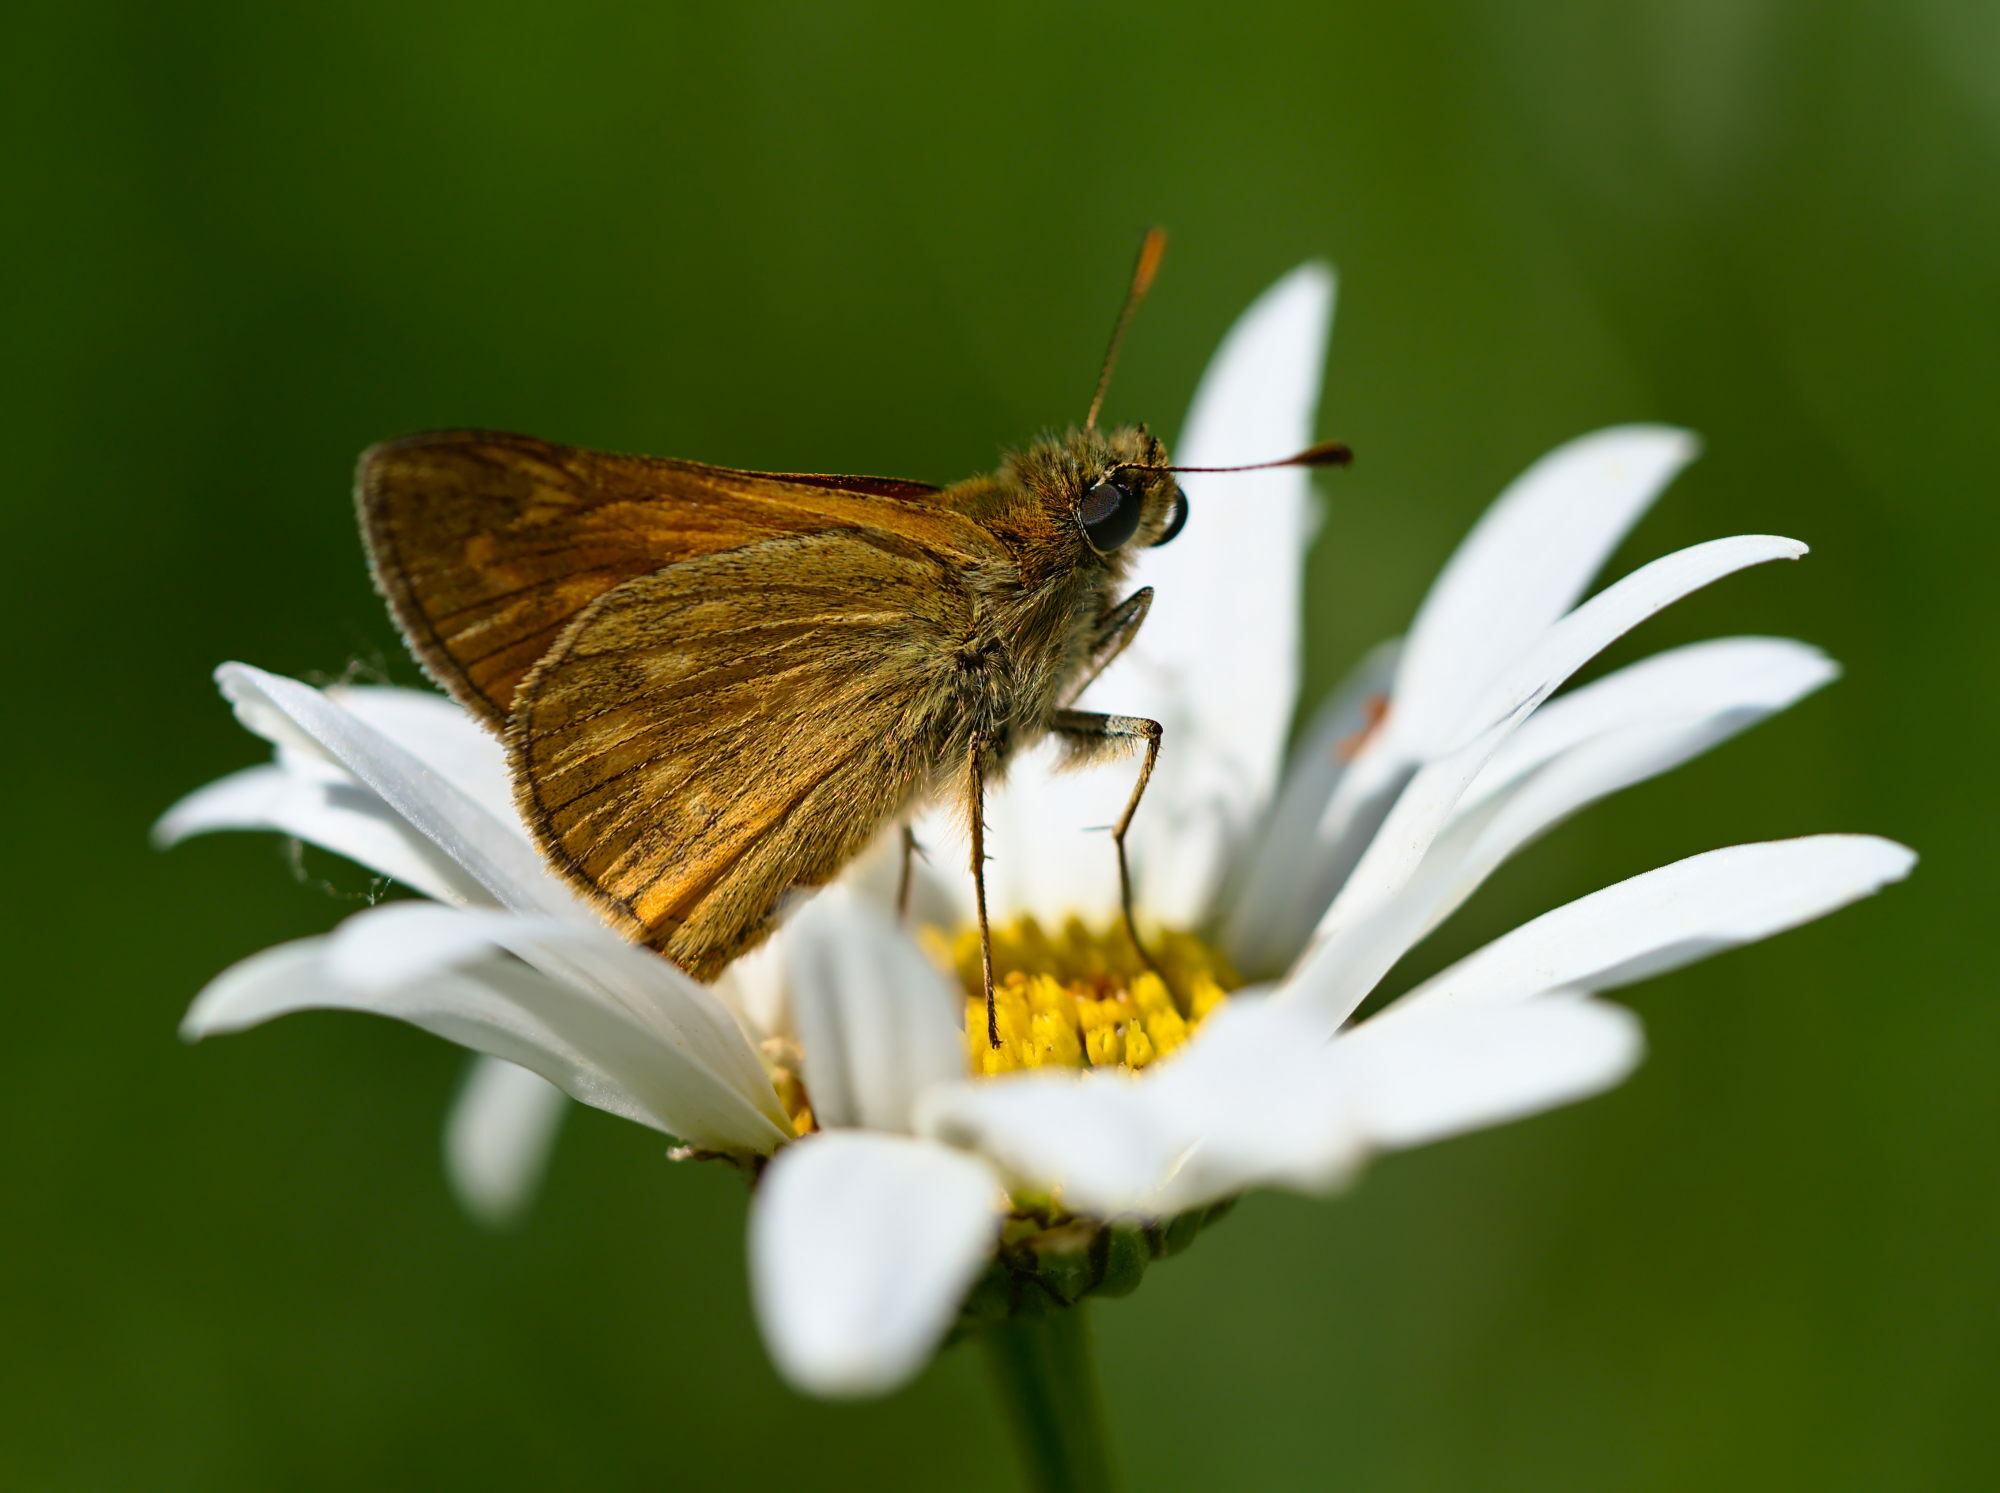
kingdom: Animalia
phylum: Arthropoda
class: Insecta
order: Lepidoptera
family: Hesperiidae
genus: Ochlodes
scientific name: Ochlodes venata
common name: Large skipper
